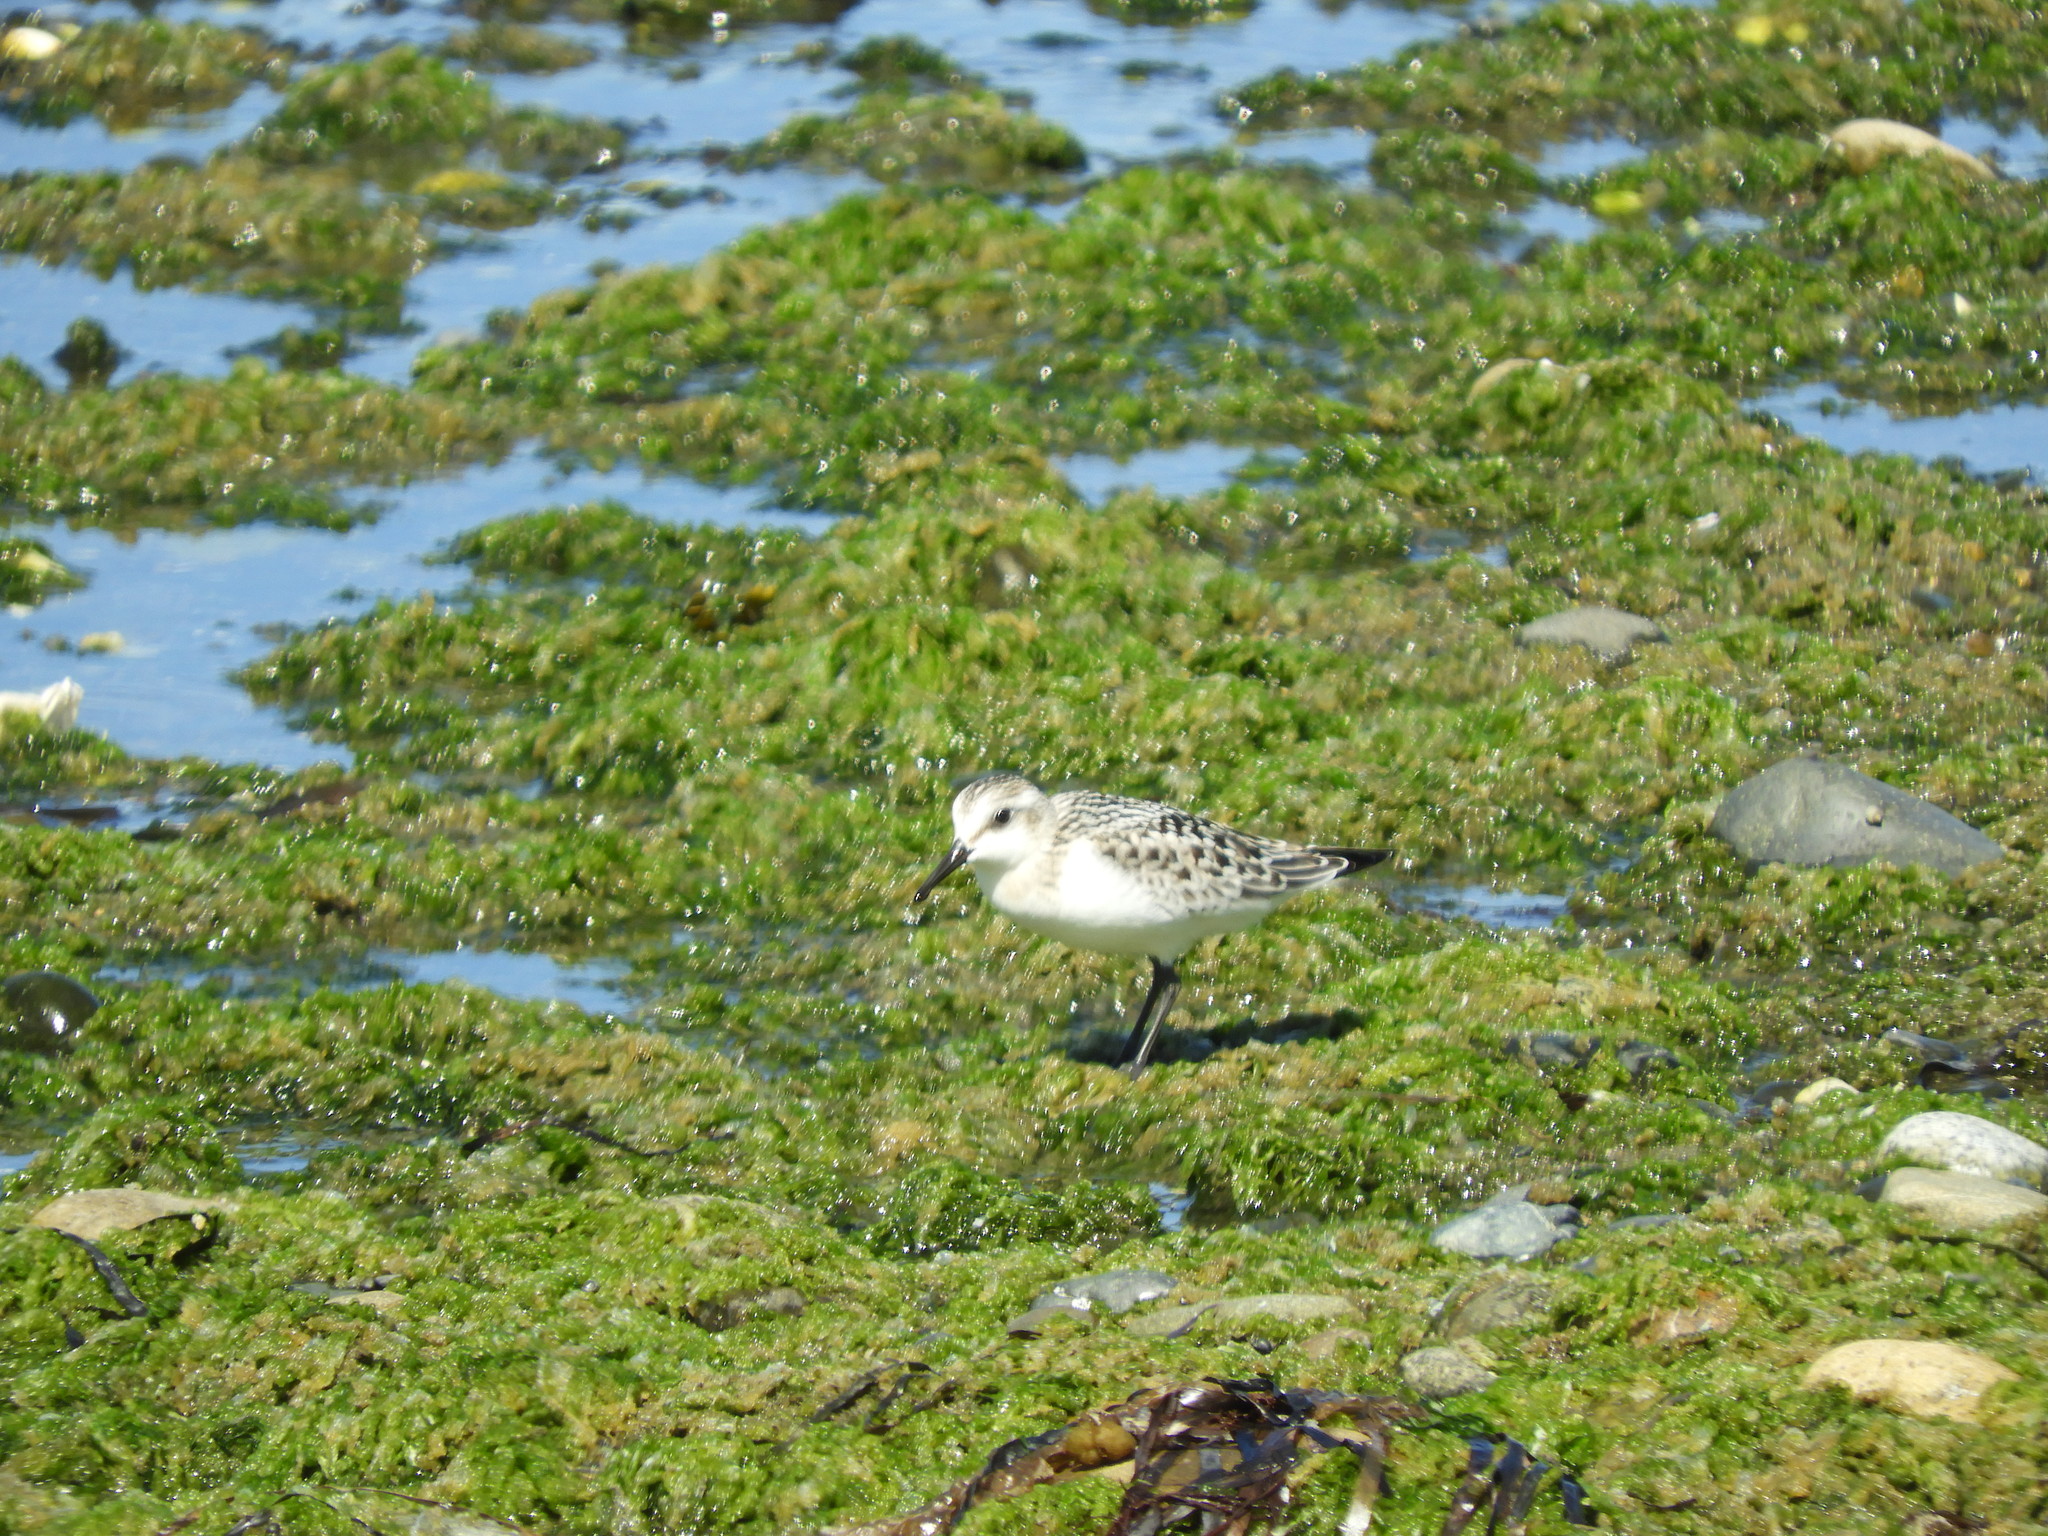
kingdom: Animalia
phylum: Chordata
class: Aves
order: Charadriiformes
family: Scolopacidae
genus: Calidris
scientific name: Calidris alba
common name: Sanderling
